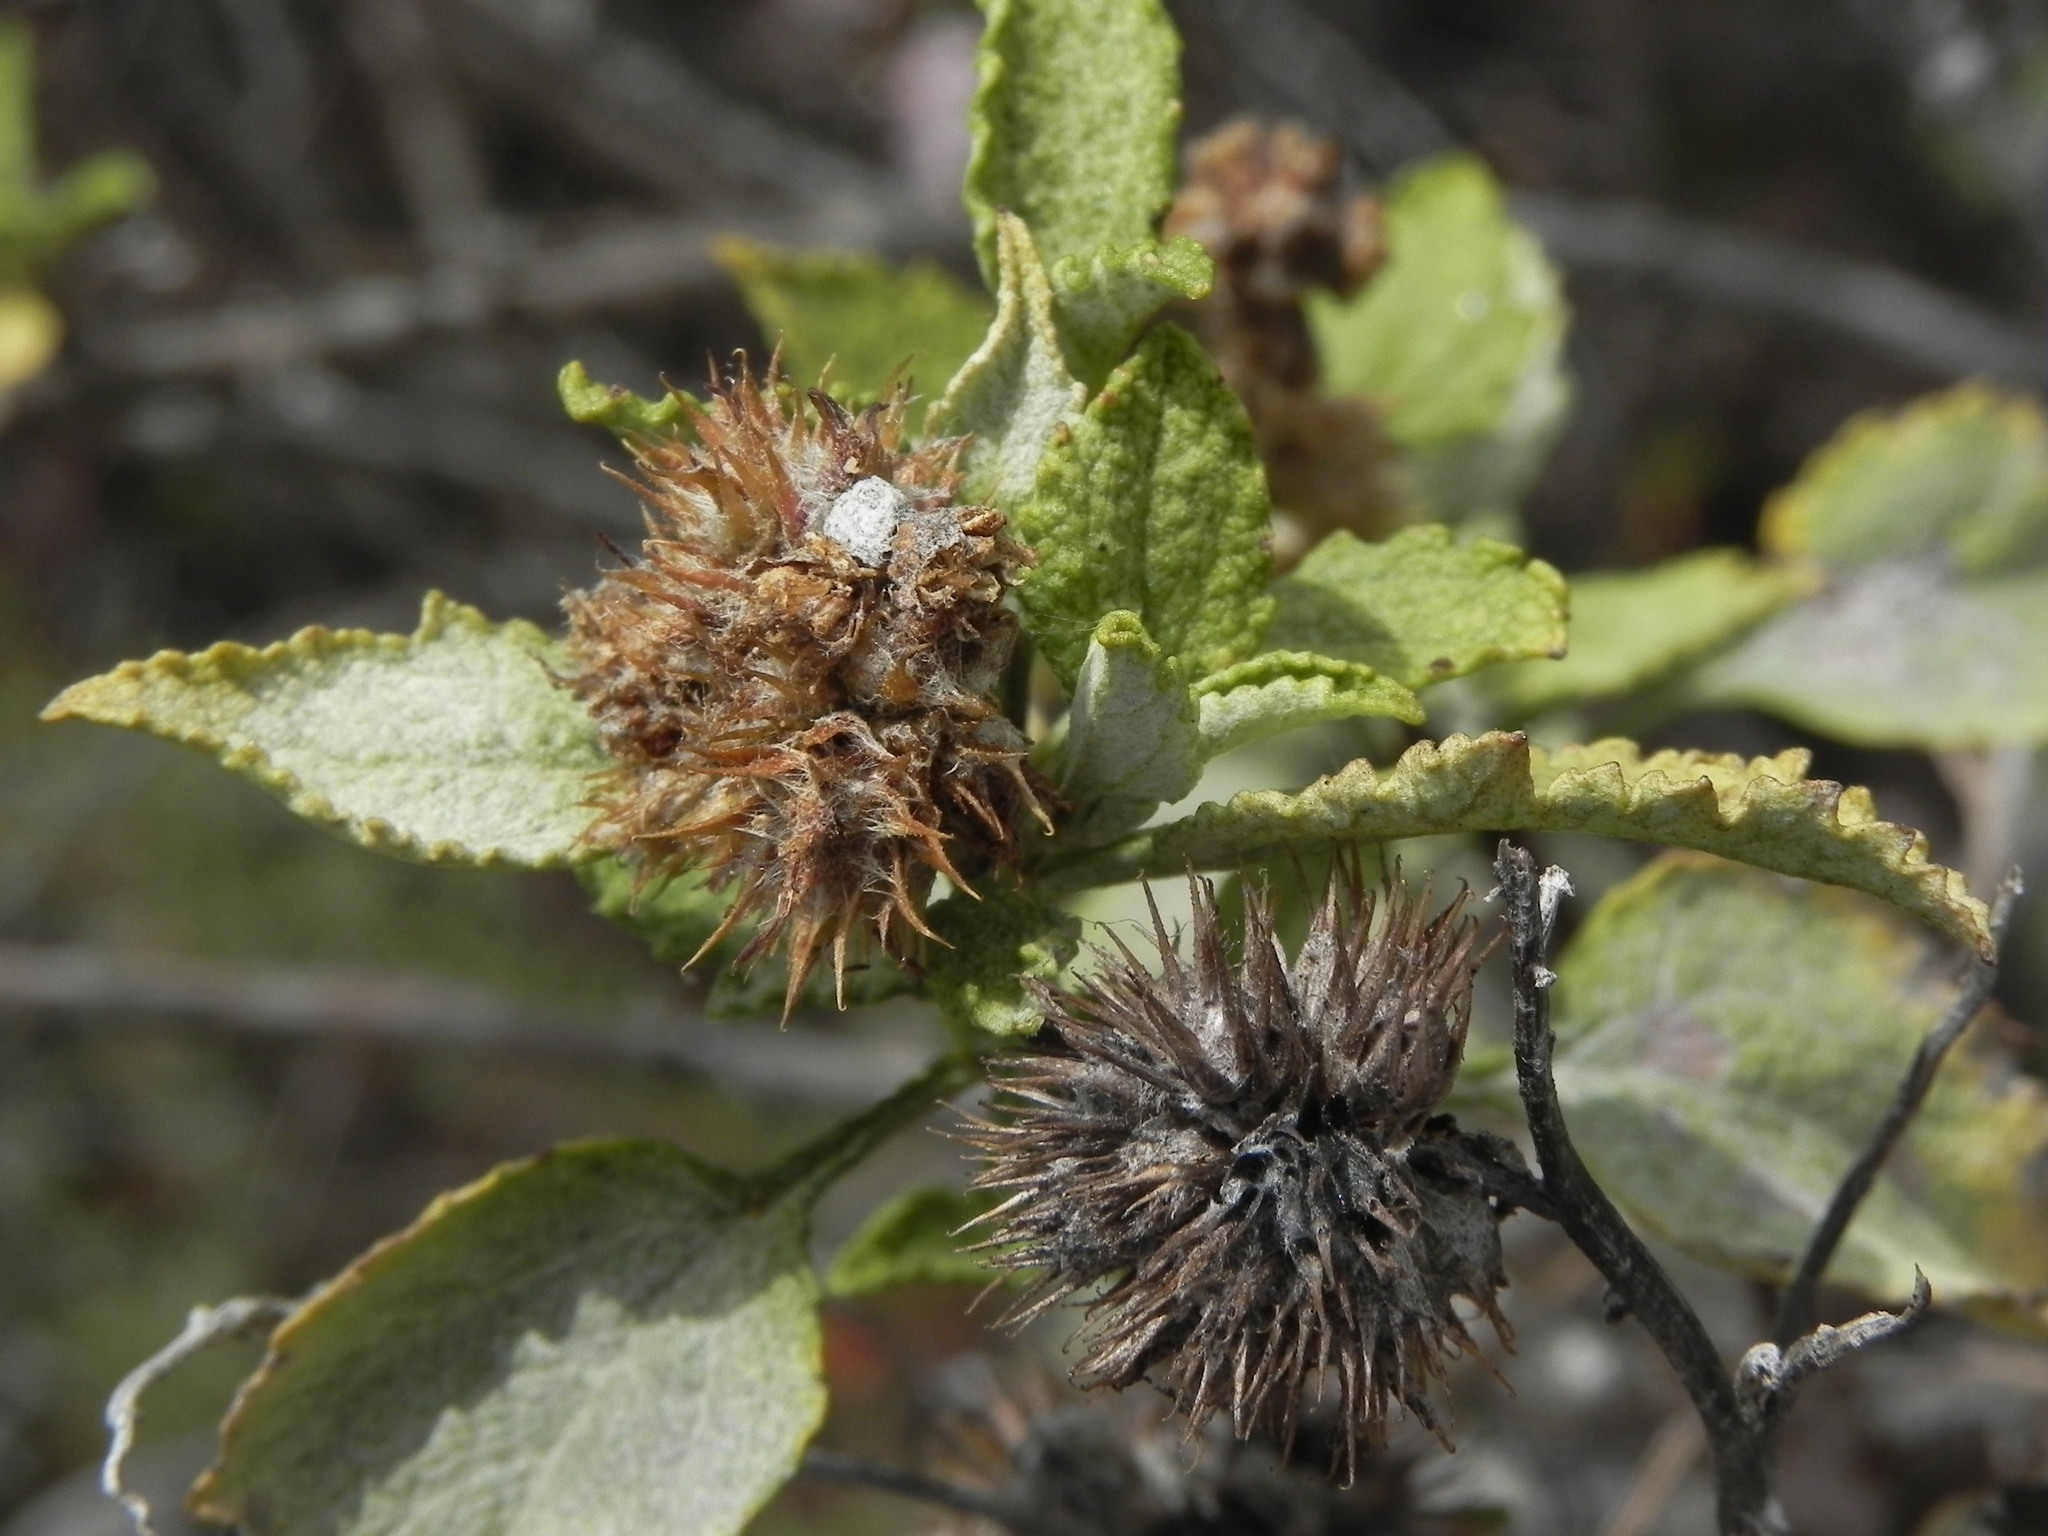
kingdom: Plantae
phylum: Tracheophyta
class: Magnoliopsida
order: Asterales
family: Asteraceae
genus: Ambrosia
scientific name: Ambrosia chenopodiifolia
